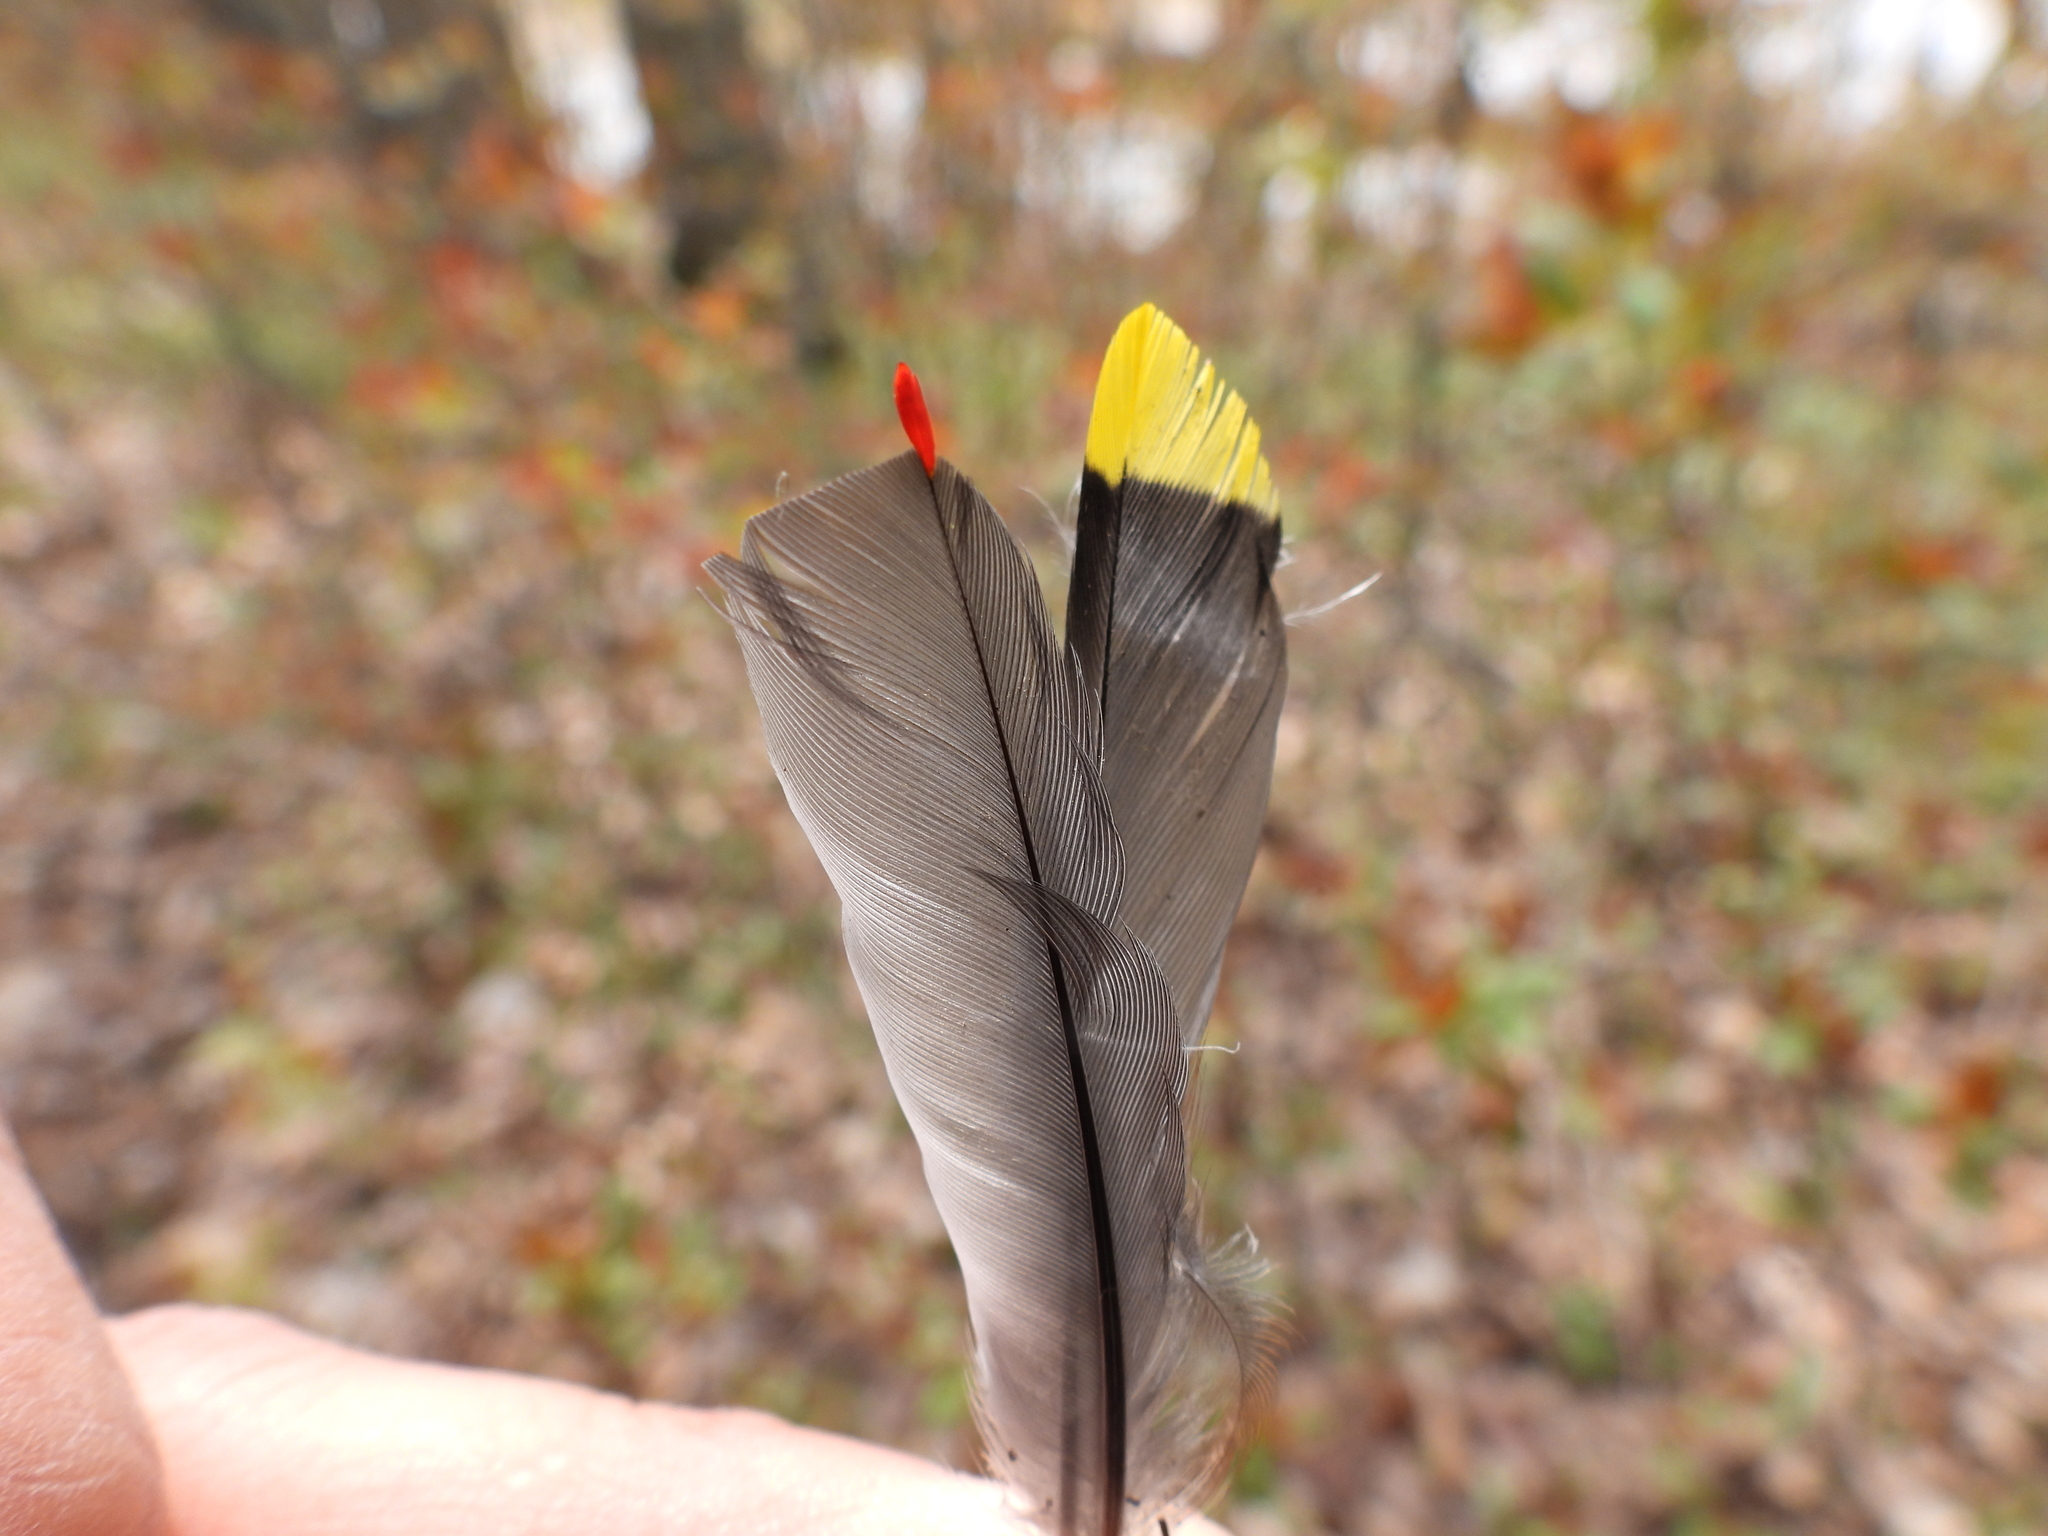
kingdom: Animalia
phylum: Chordata
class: Aves
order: Passeriformes
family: Bombycillidae
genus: Bombycilla
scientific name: Bombycilla cedrorum
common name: Cedar waxwing
